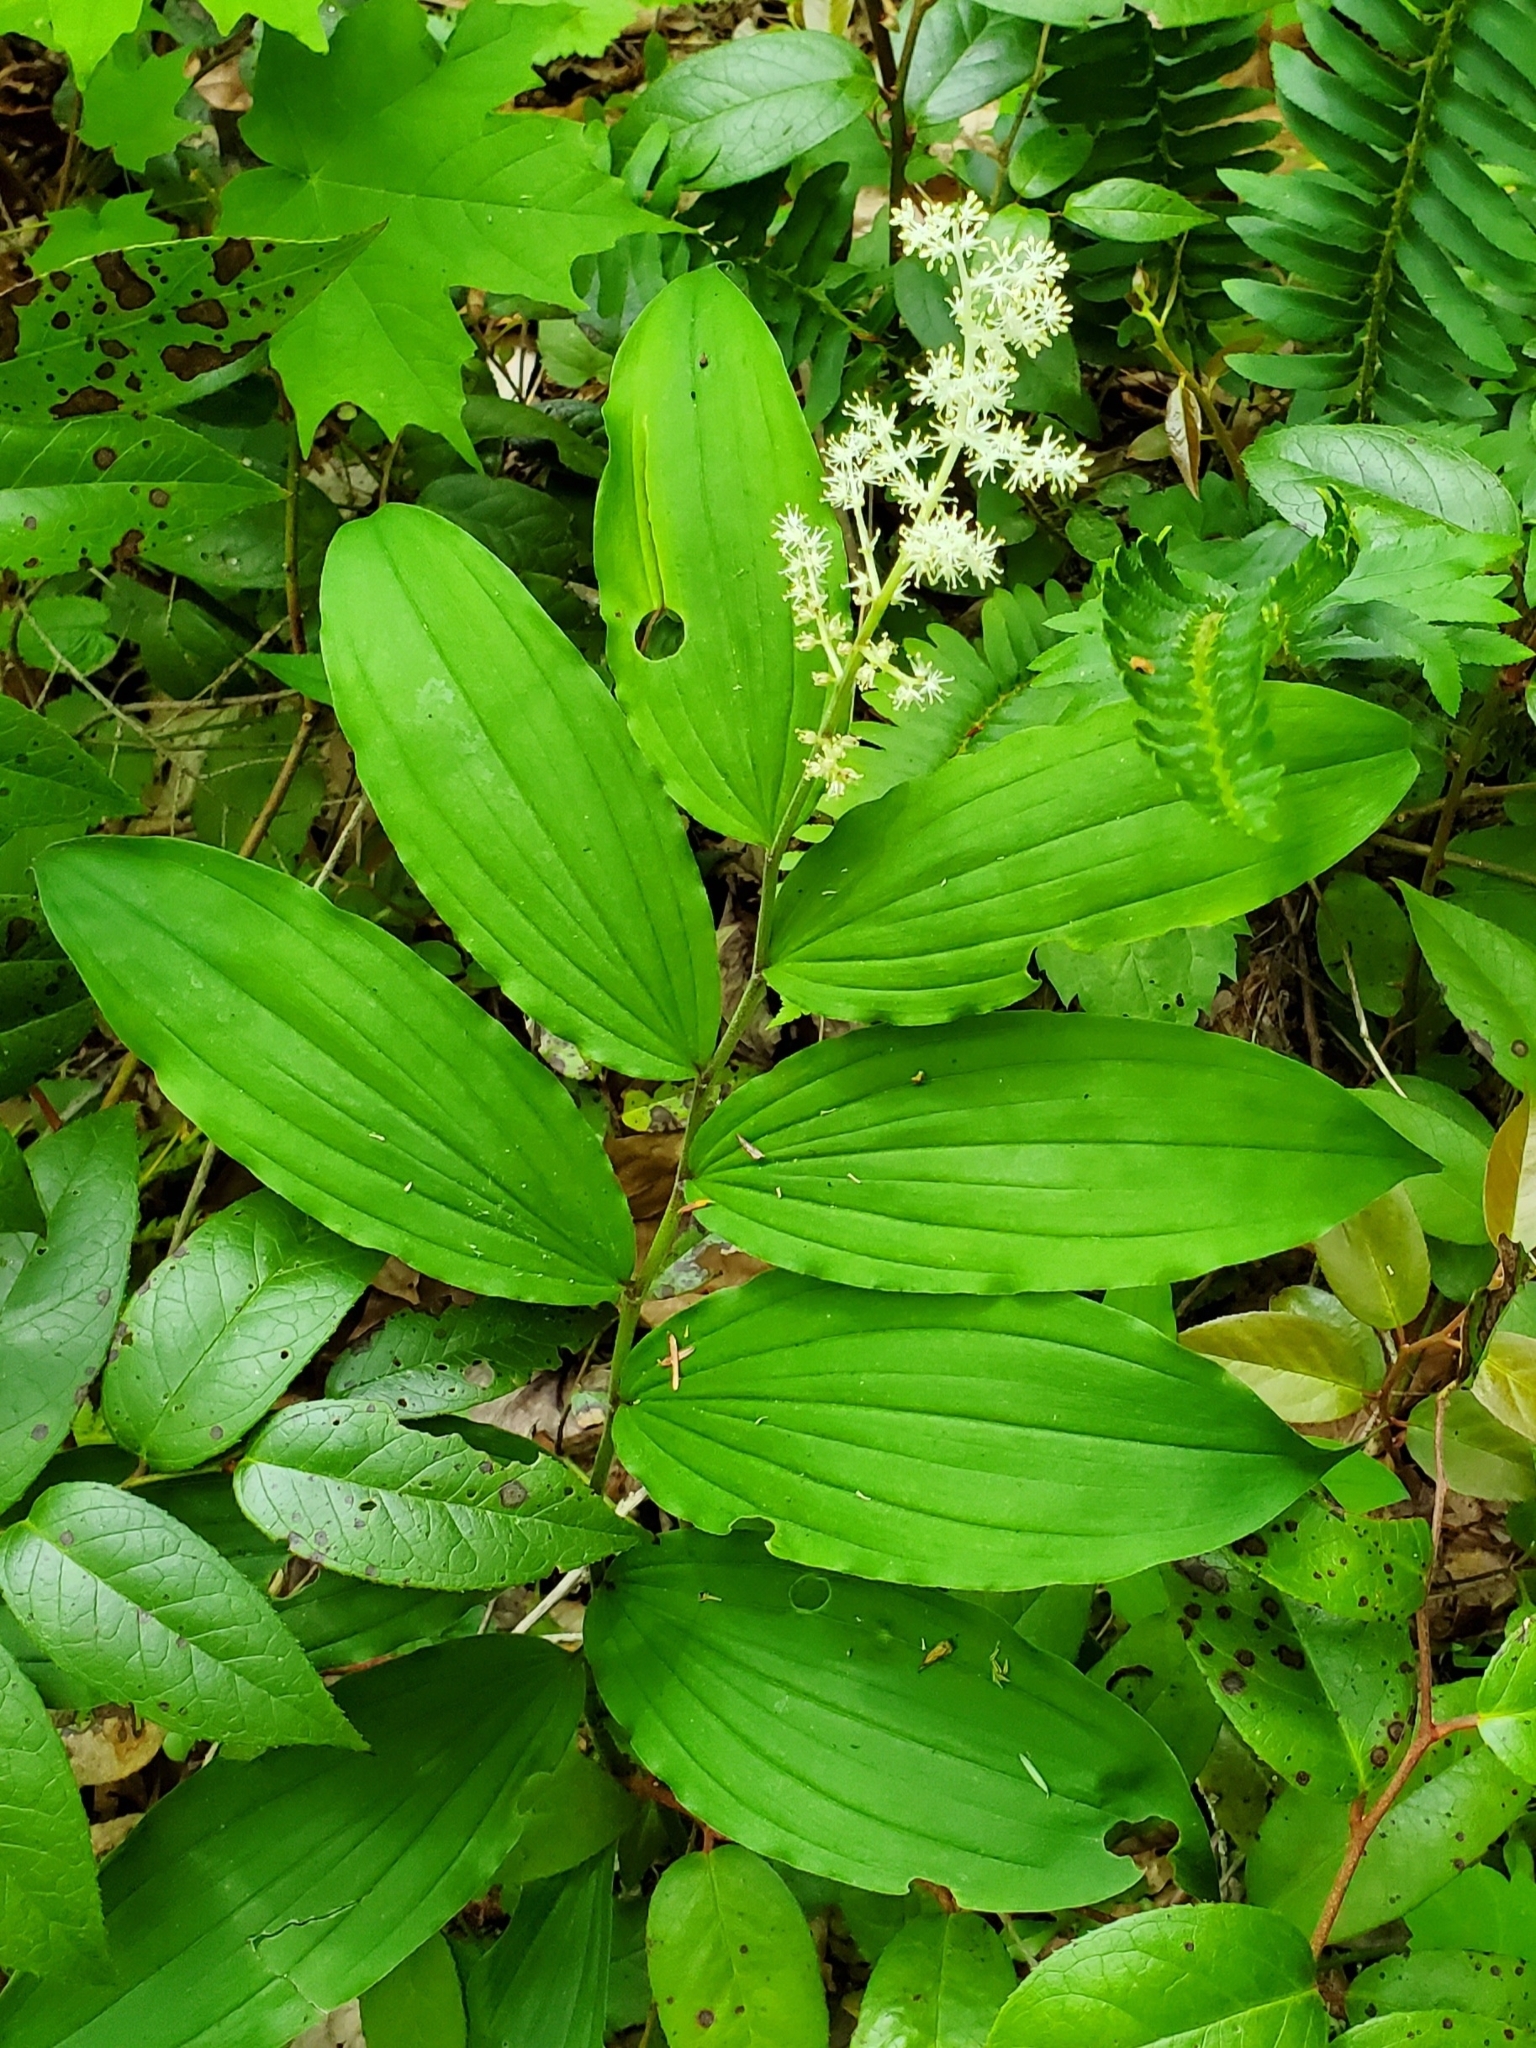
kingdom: Plantae
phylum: Tracheophyta
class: Liliopsida
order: Asparagales
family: Asparagaceae
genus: Maianthemum
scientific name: Maianthemum racemosum
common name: False spikenard
